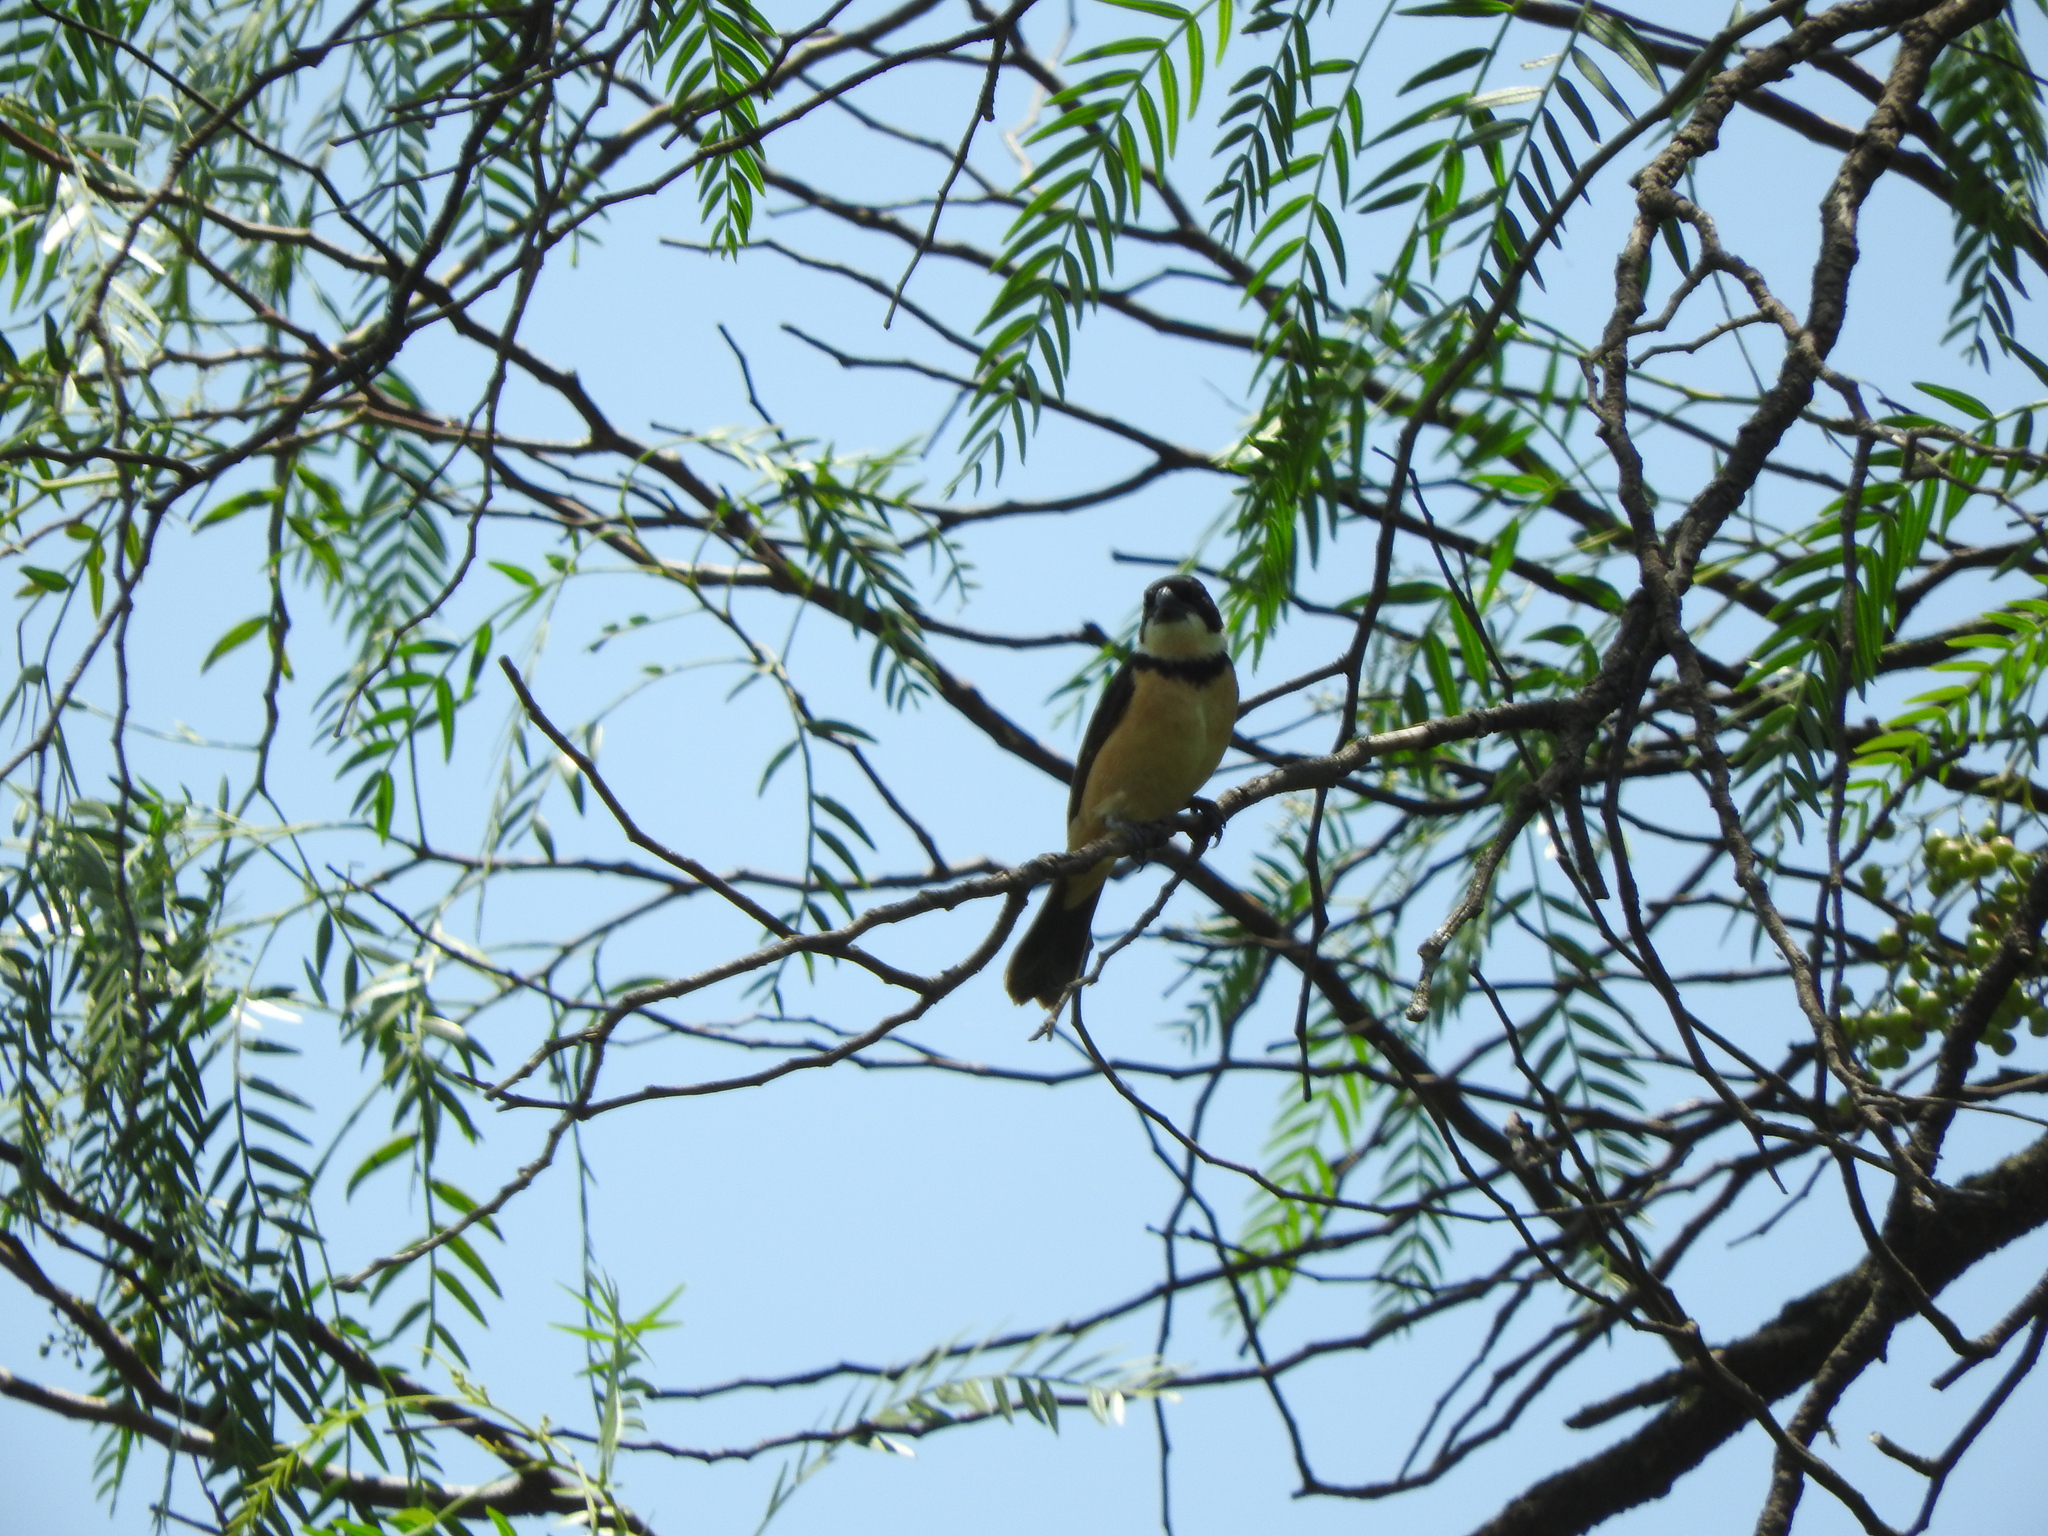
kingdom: Animalia
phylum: Chordata
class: Aves
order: Passeriformes
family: Thraupidae
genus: Sporophila
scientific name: Sporophila torqueola
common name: White-collared seedeater
